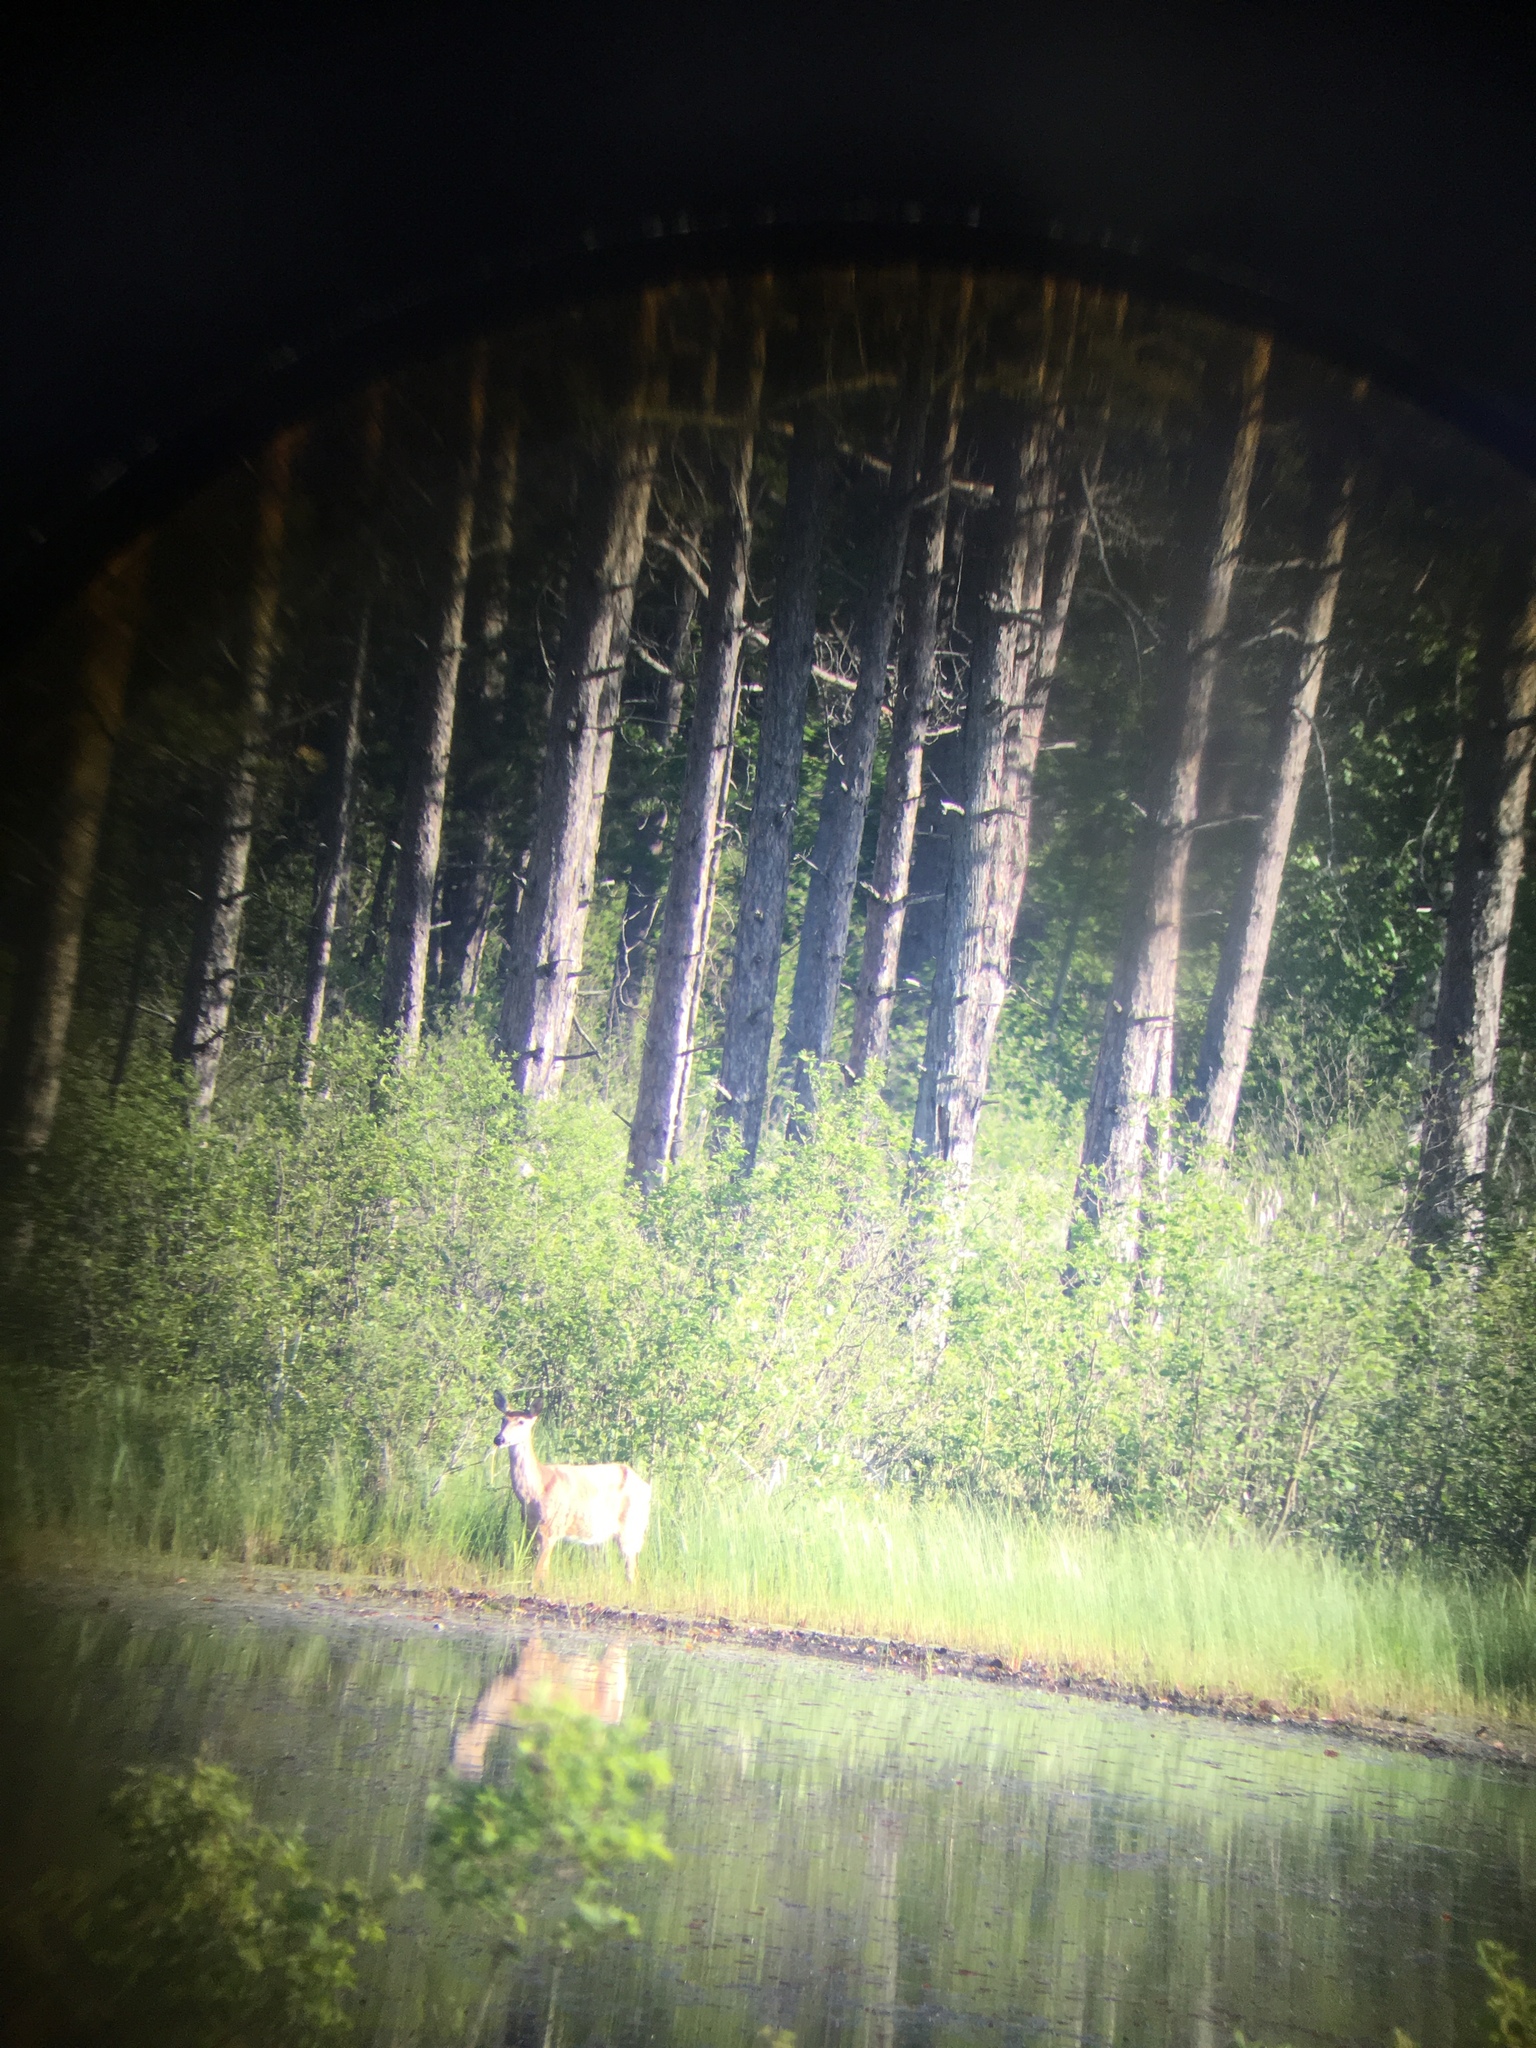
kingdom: Animalia
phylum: Chordata
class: Mammalia
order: Artiodactyla
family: Cervidae
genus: Odocoileus
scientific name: Odocoileus virginianus
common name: White-tailed deer
